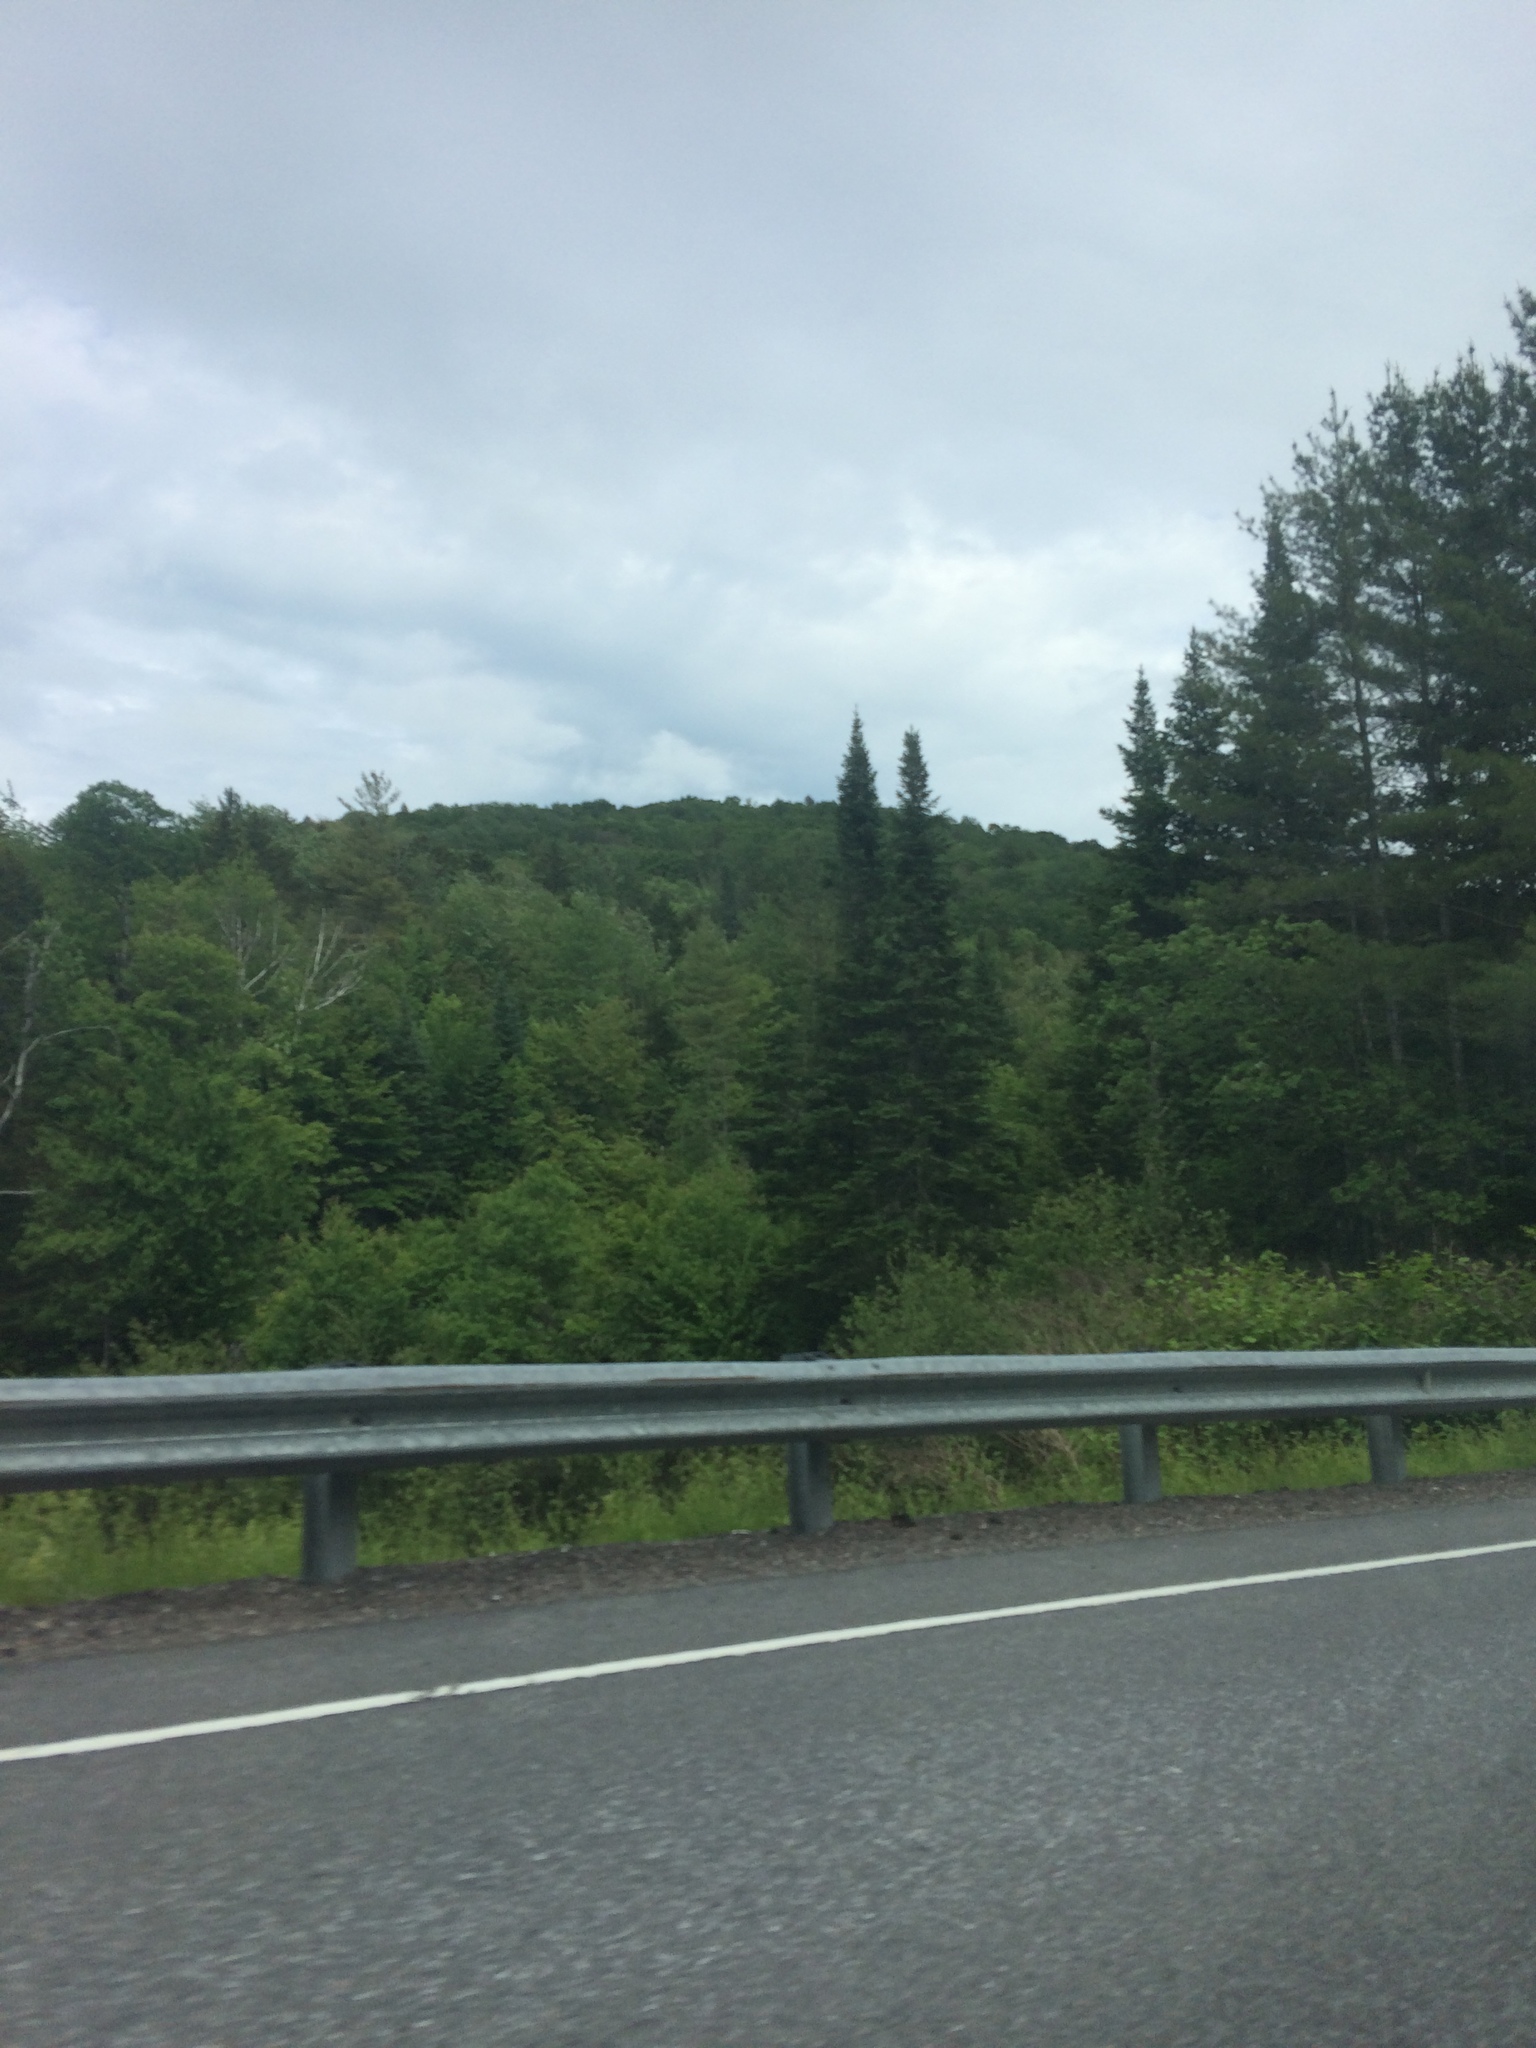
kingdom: Plantae
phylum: Tracheophyta
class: Pinopsida
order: Pinales
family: Pinaceae
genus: Abies
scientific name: Abies balsamea
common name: Balsam fir
